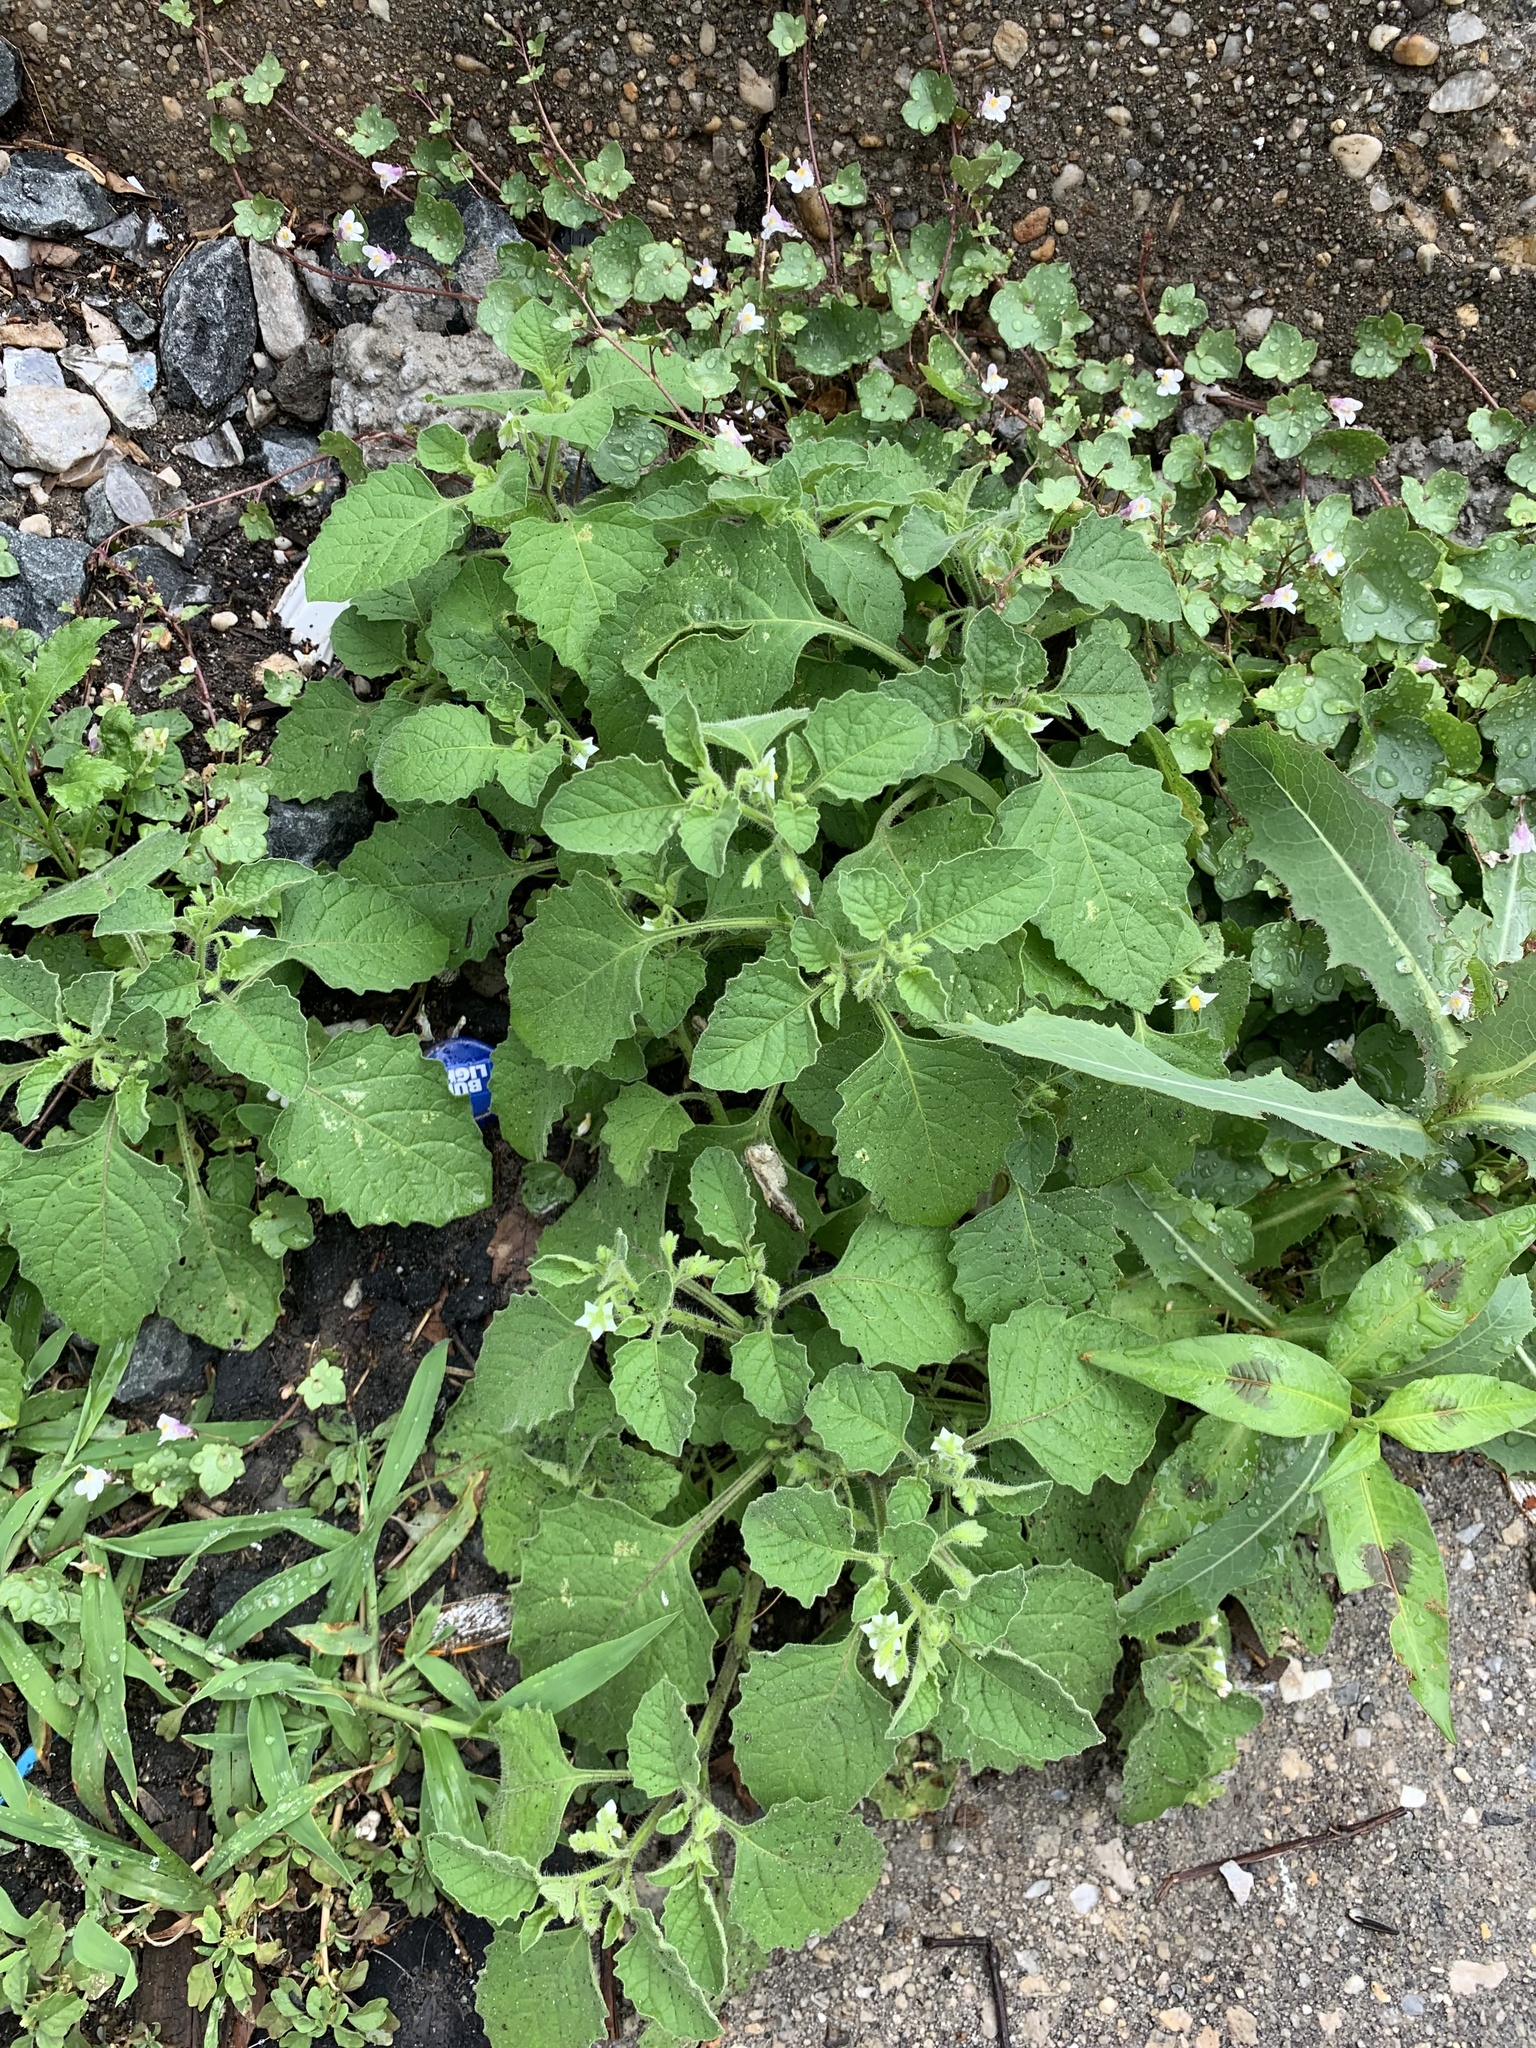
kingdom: Plantae
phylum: Tracheophyta
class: Magnoliopsida
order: Solanales
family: Solanaceae
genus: Solanum
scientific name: Solanum sarrachoides
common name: Leafy-fruited nightshade
